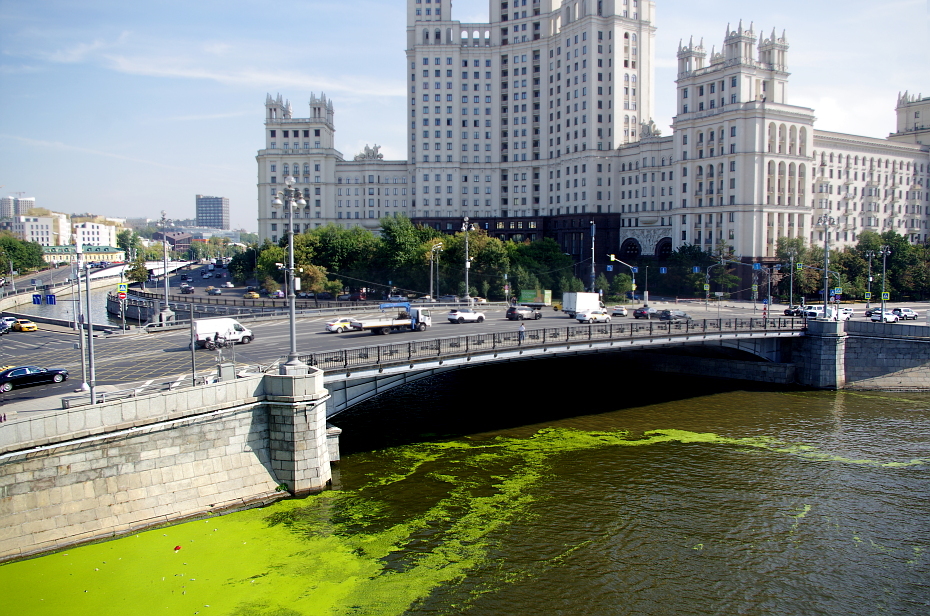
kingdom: Plantae
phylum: Tracheophyta
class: Liliopsida
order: Alismatales
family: Araceae
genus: Lemna
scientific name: Lemna minor
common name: Common duckweed
